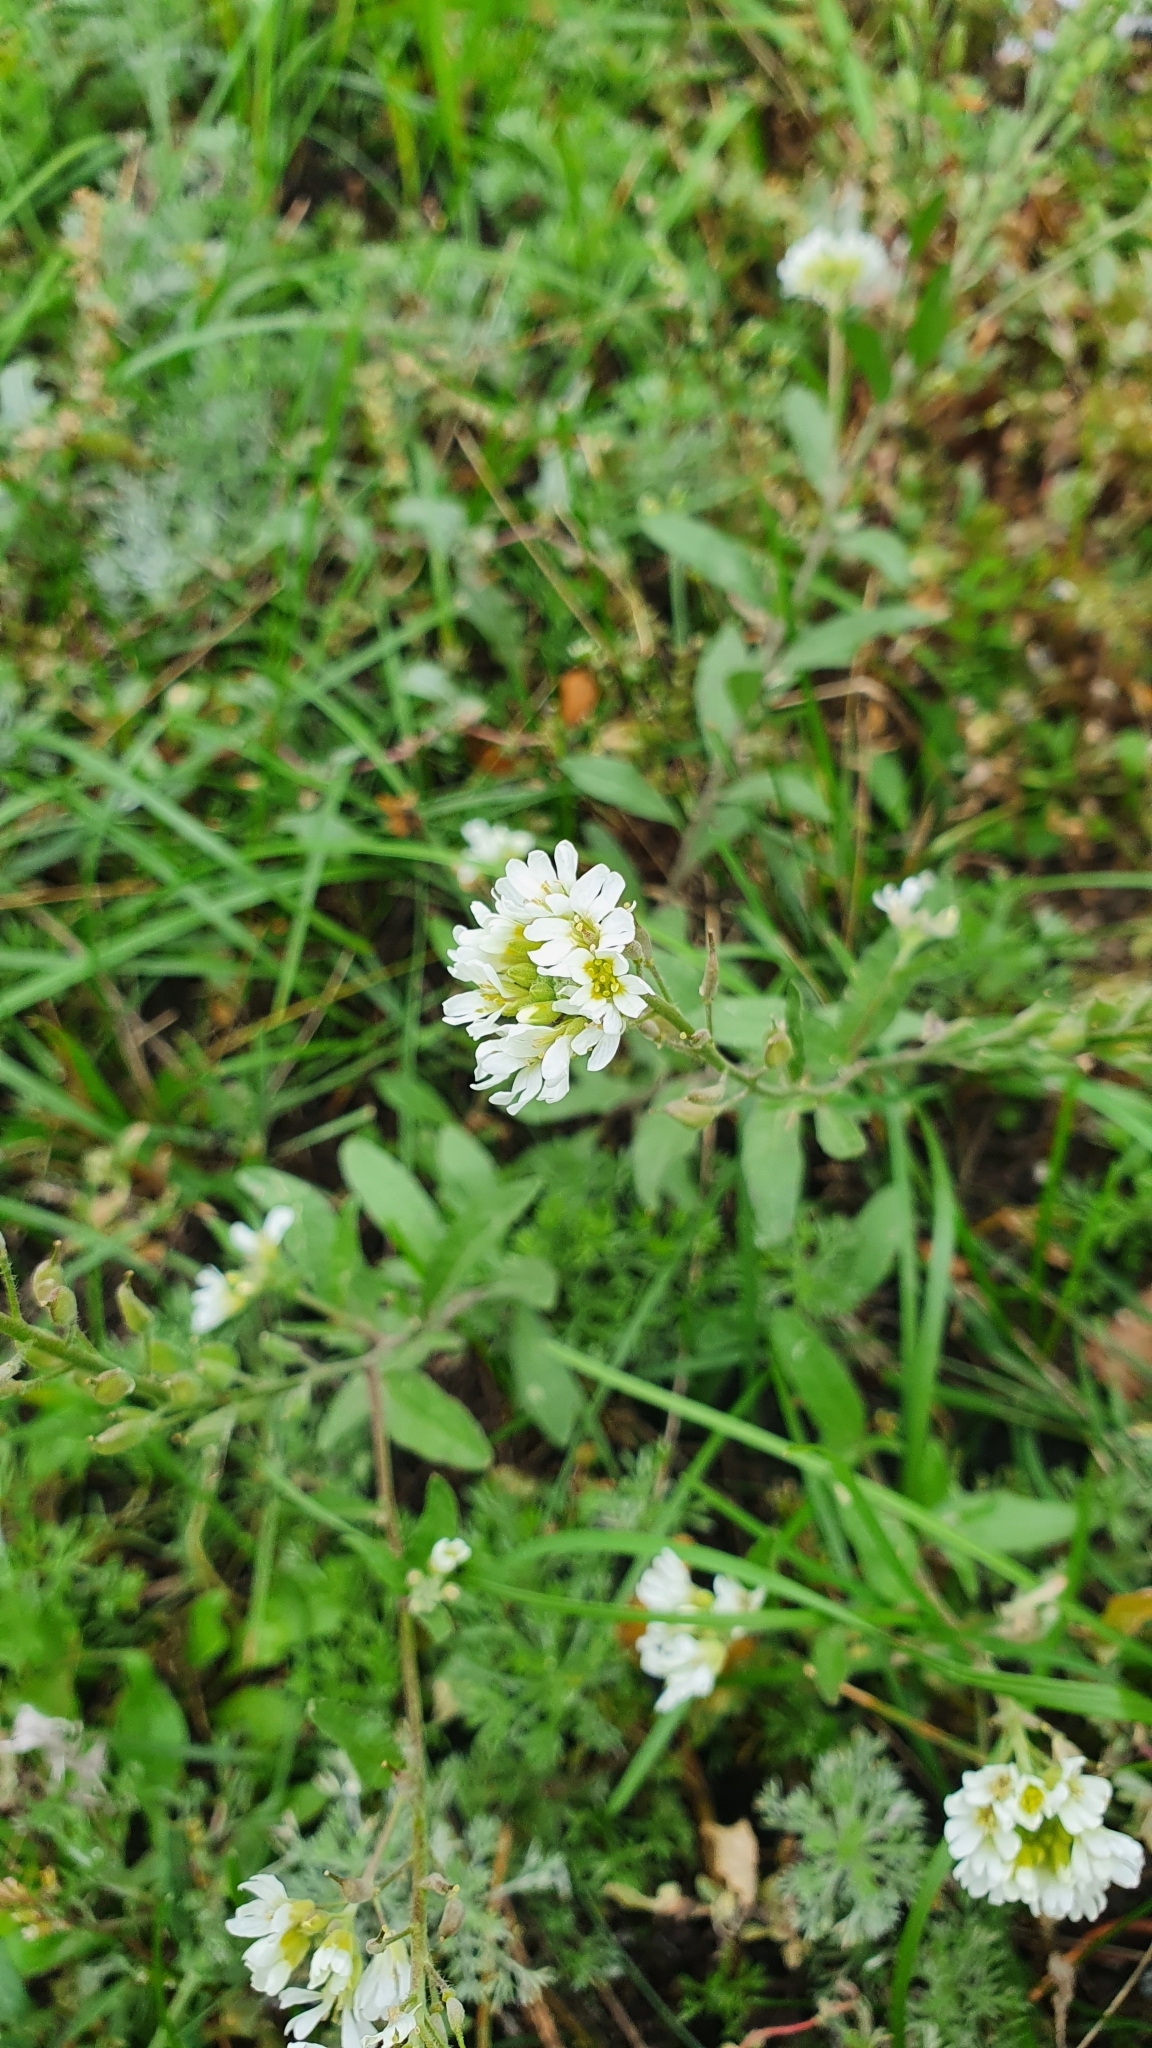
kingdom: Plantae
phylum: Tracheophyta
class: Magnoliopsida
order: Brassicales
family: Brassicaceae
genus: Berteroa
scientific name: Berteroa incana
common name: Hoary alison
